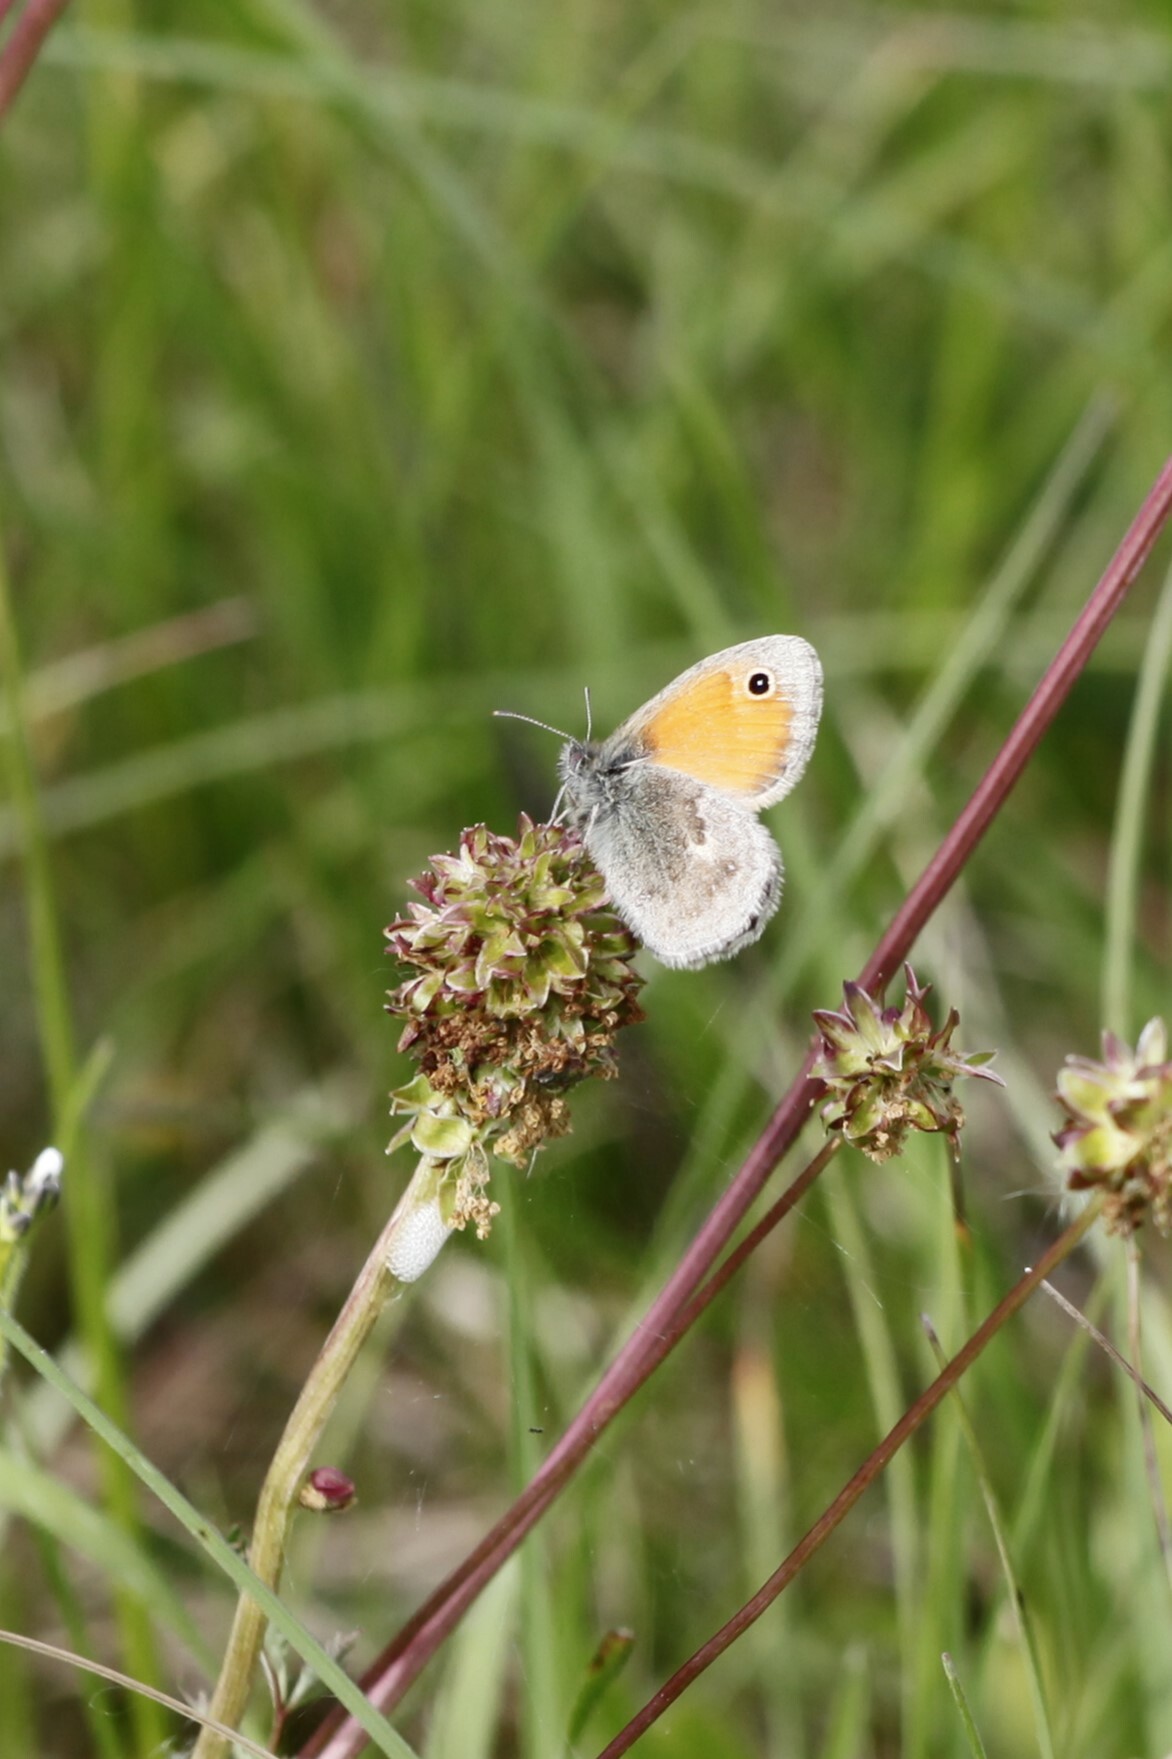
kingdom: Animalia
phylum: Arthropoda
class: Insecta
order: Lepidoptera
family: Nymphalidae
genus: Coenonympha
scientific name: Coenonympha pamphilus
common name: Small heath
